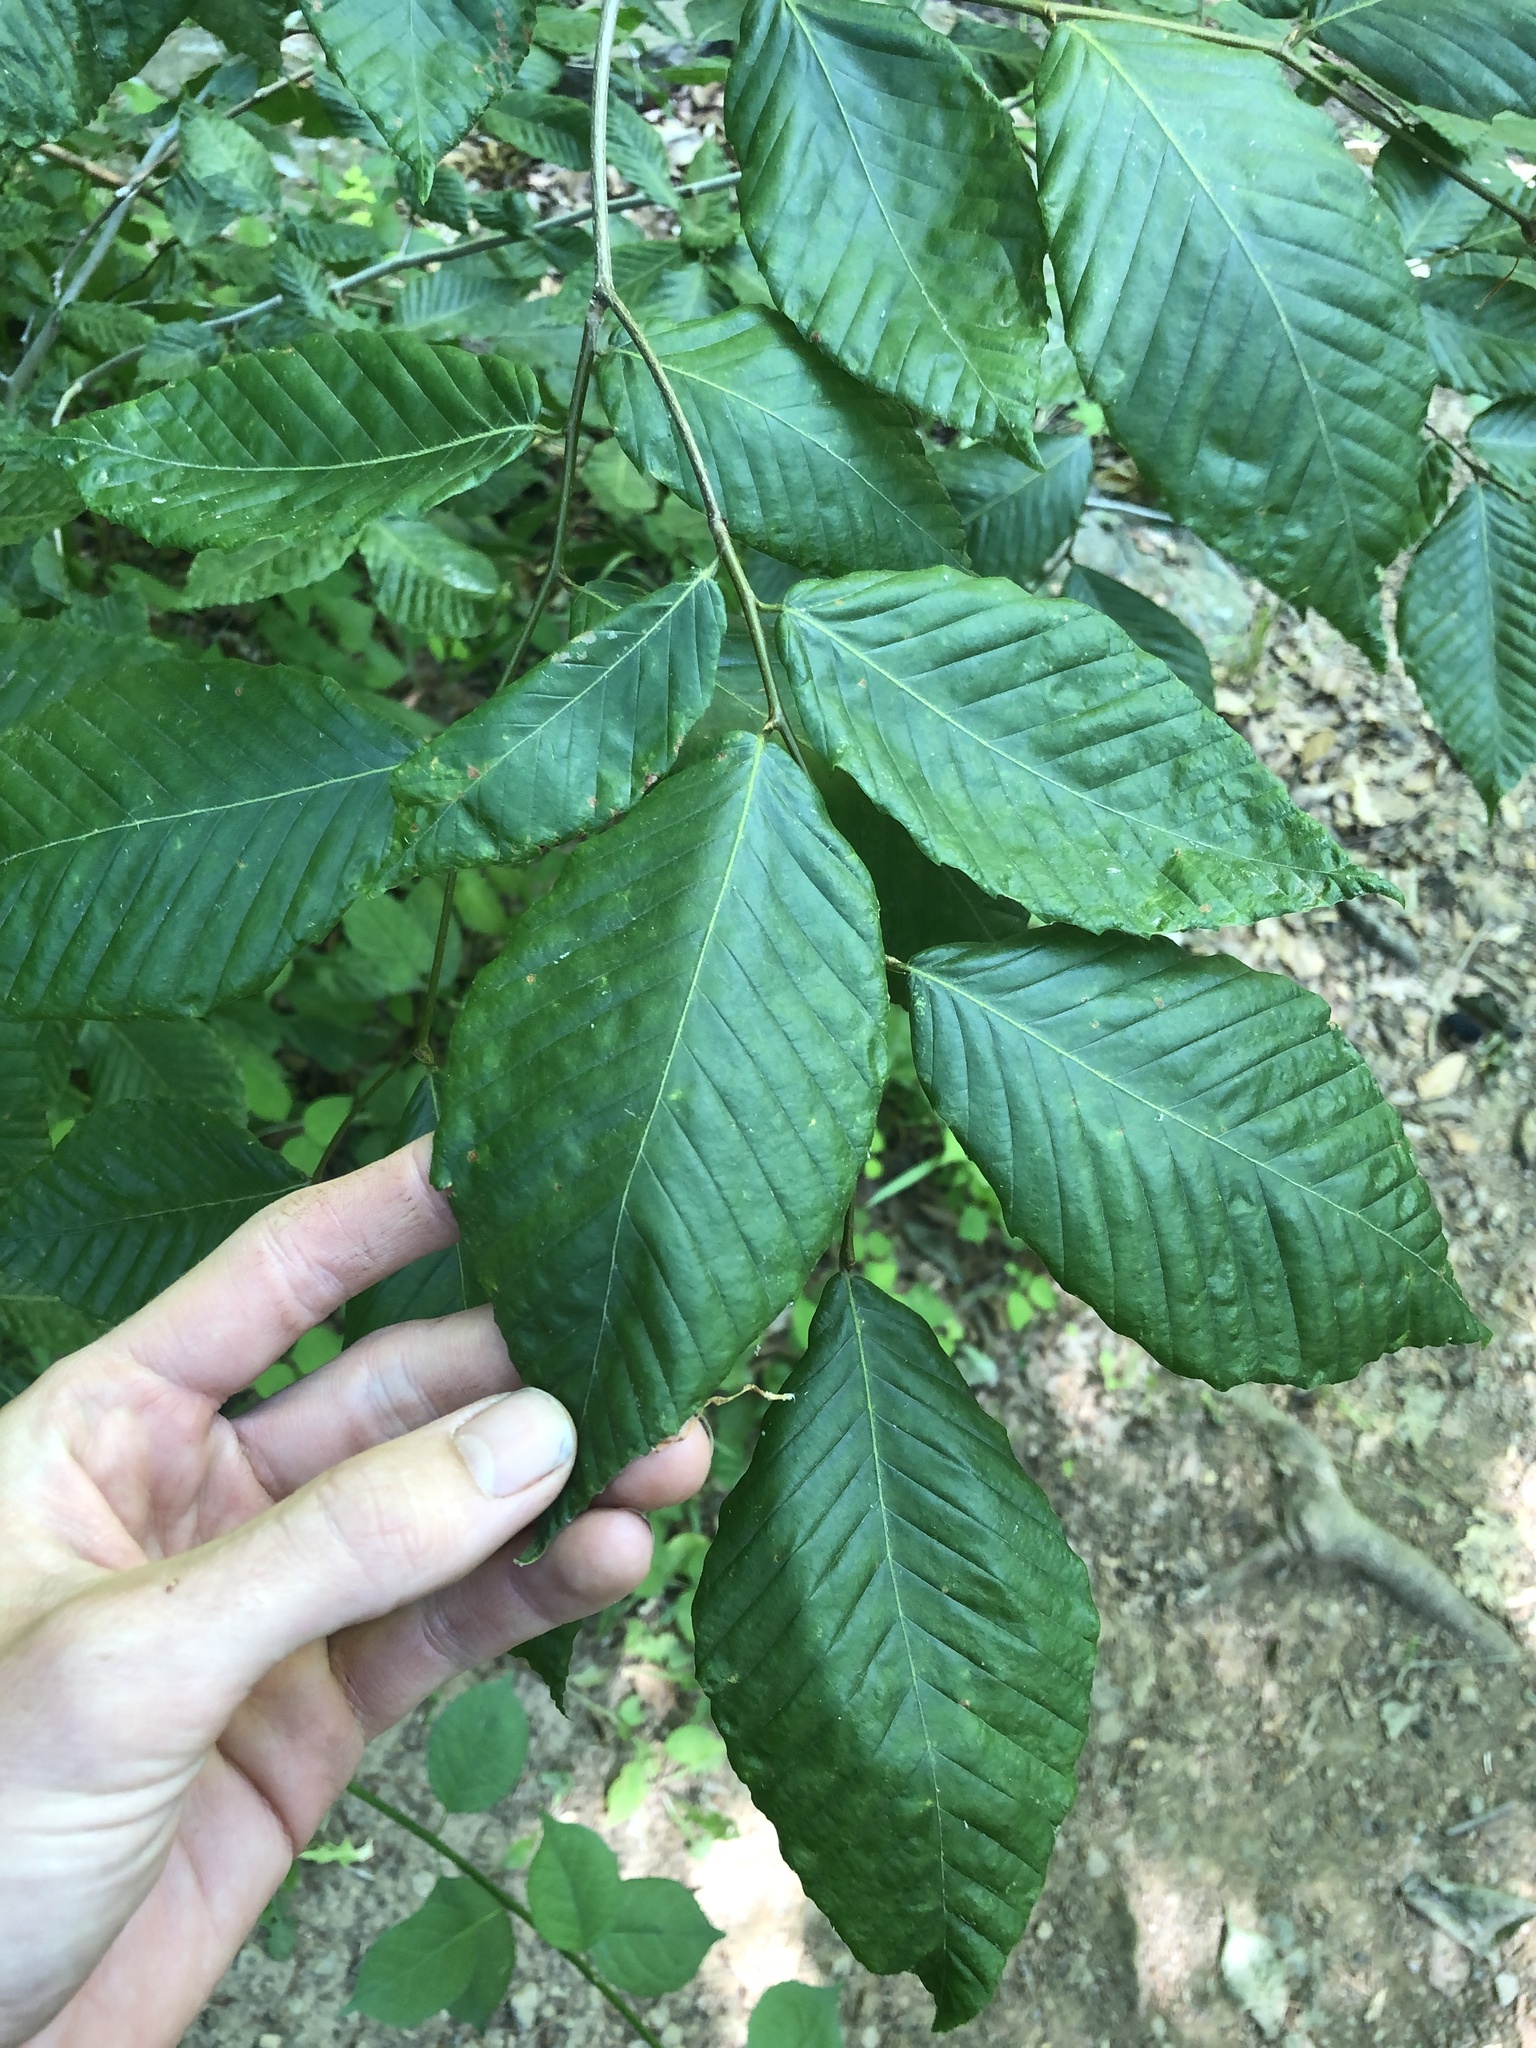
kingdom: Plantae
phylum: Tracheophyta
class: Magnoliopsida
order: Fagales
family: Fagaceae
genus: Fagus
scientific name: Fagus grandifolia
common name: American beech
